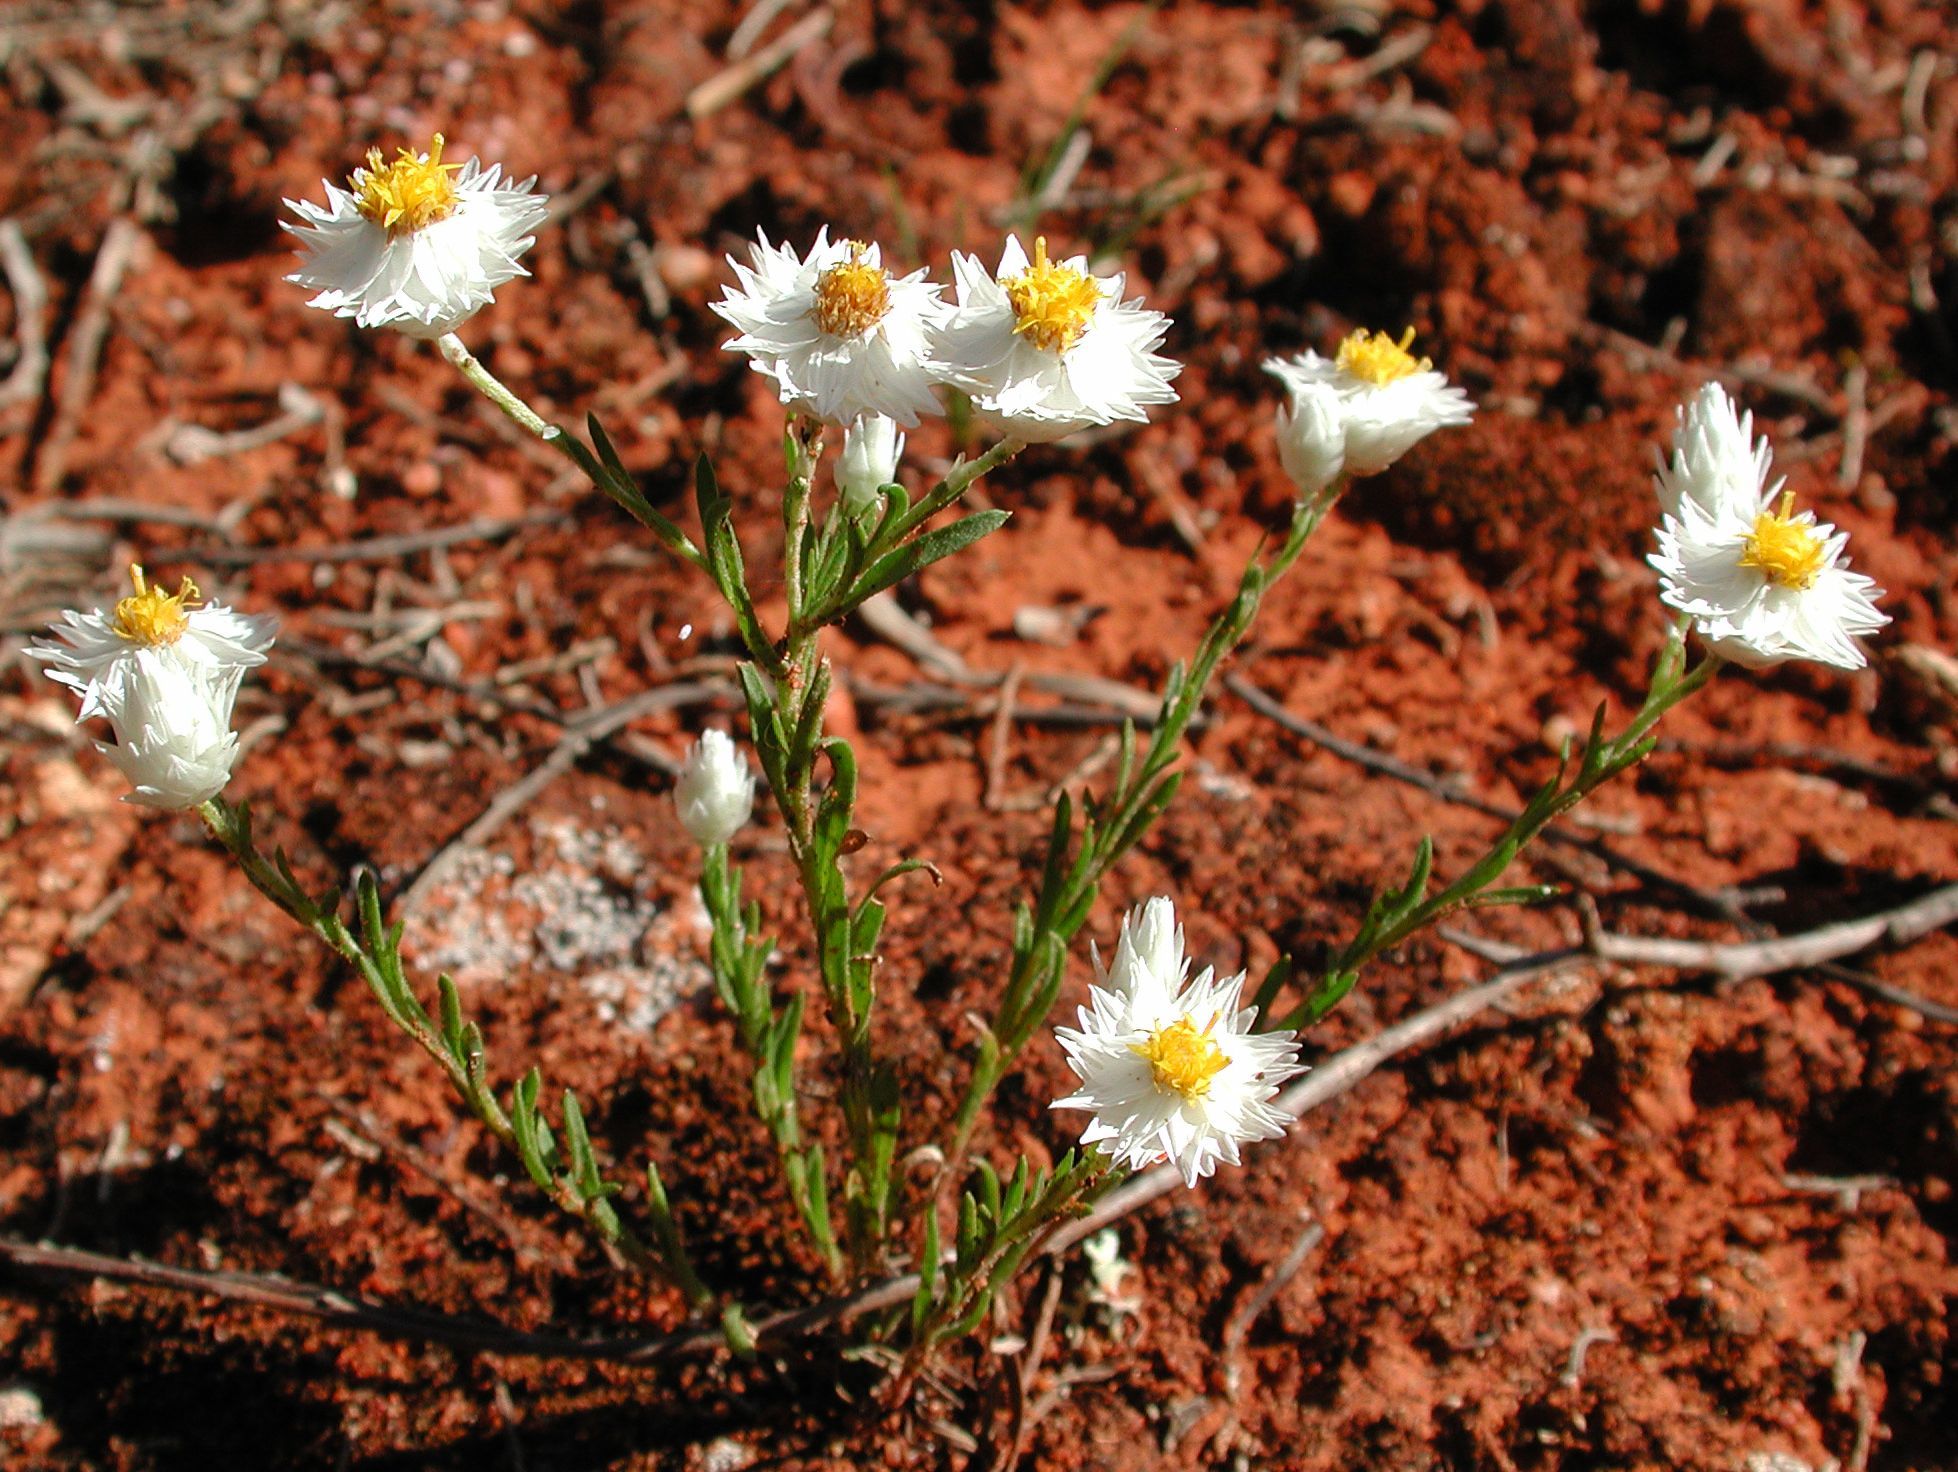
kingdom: Plantae
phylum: Tracheophyta
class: Magnoliopsida
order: Asterales
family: Asteraceae
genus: Rhodanthe
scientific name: Rhodanthe floribunda
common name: Flowery sunray
